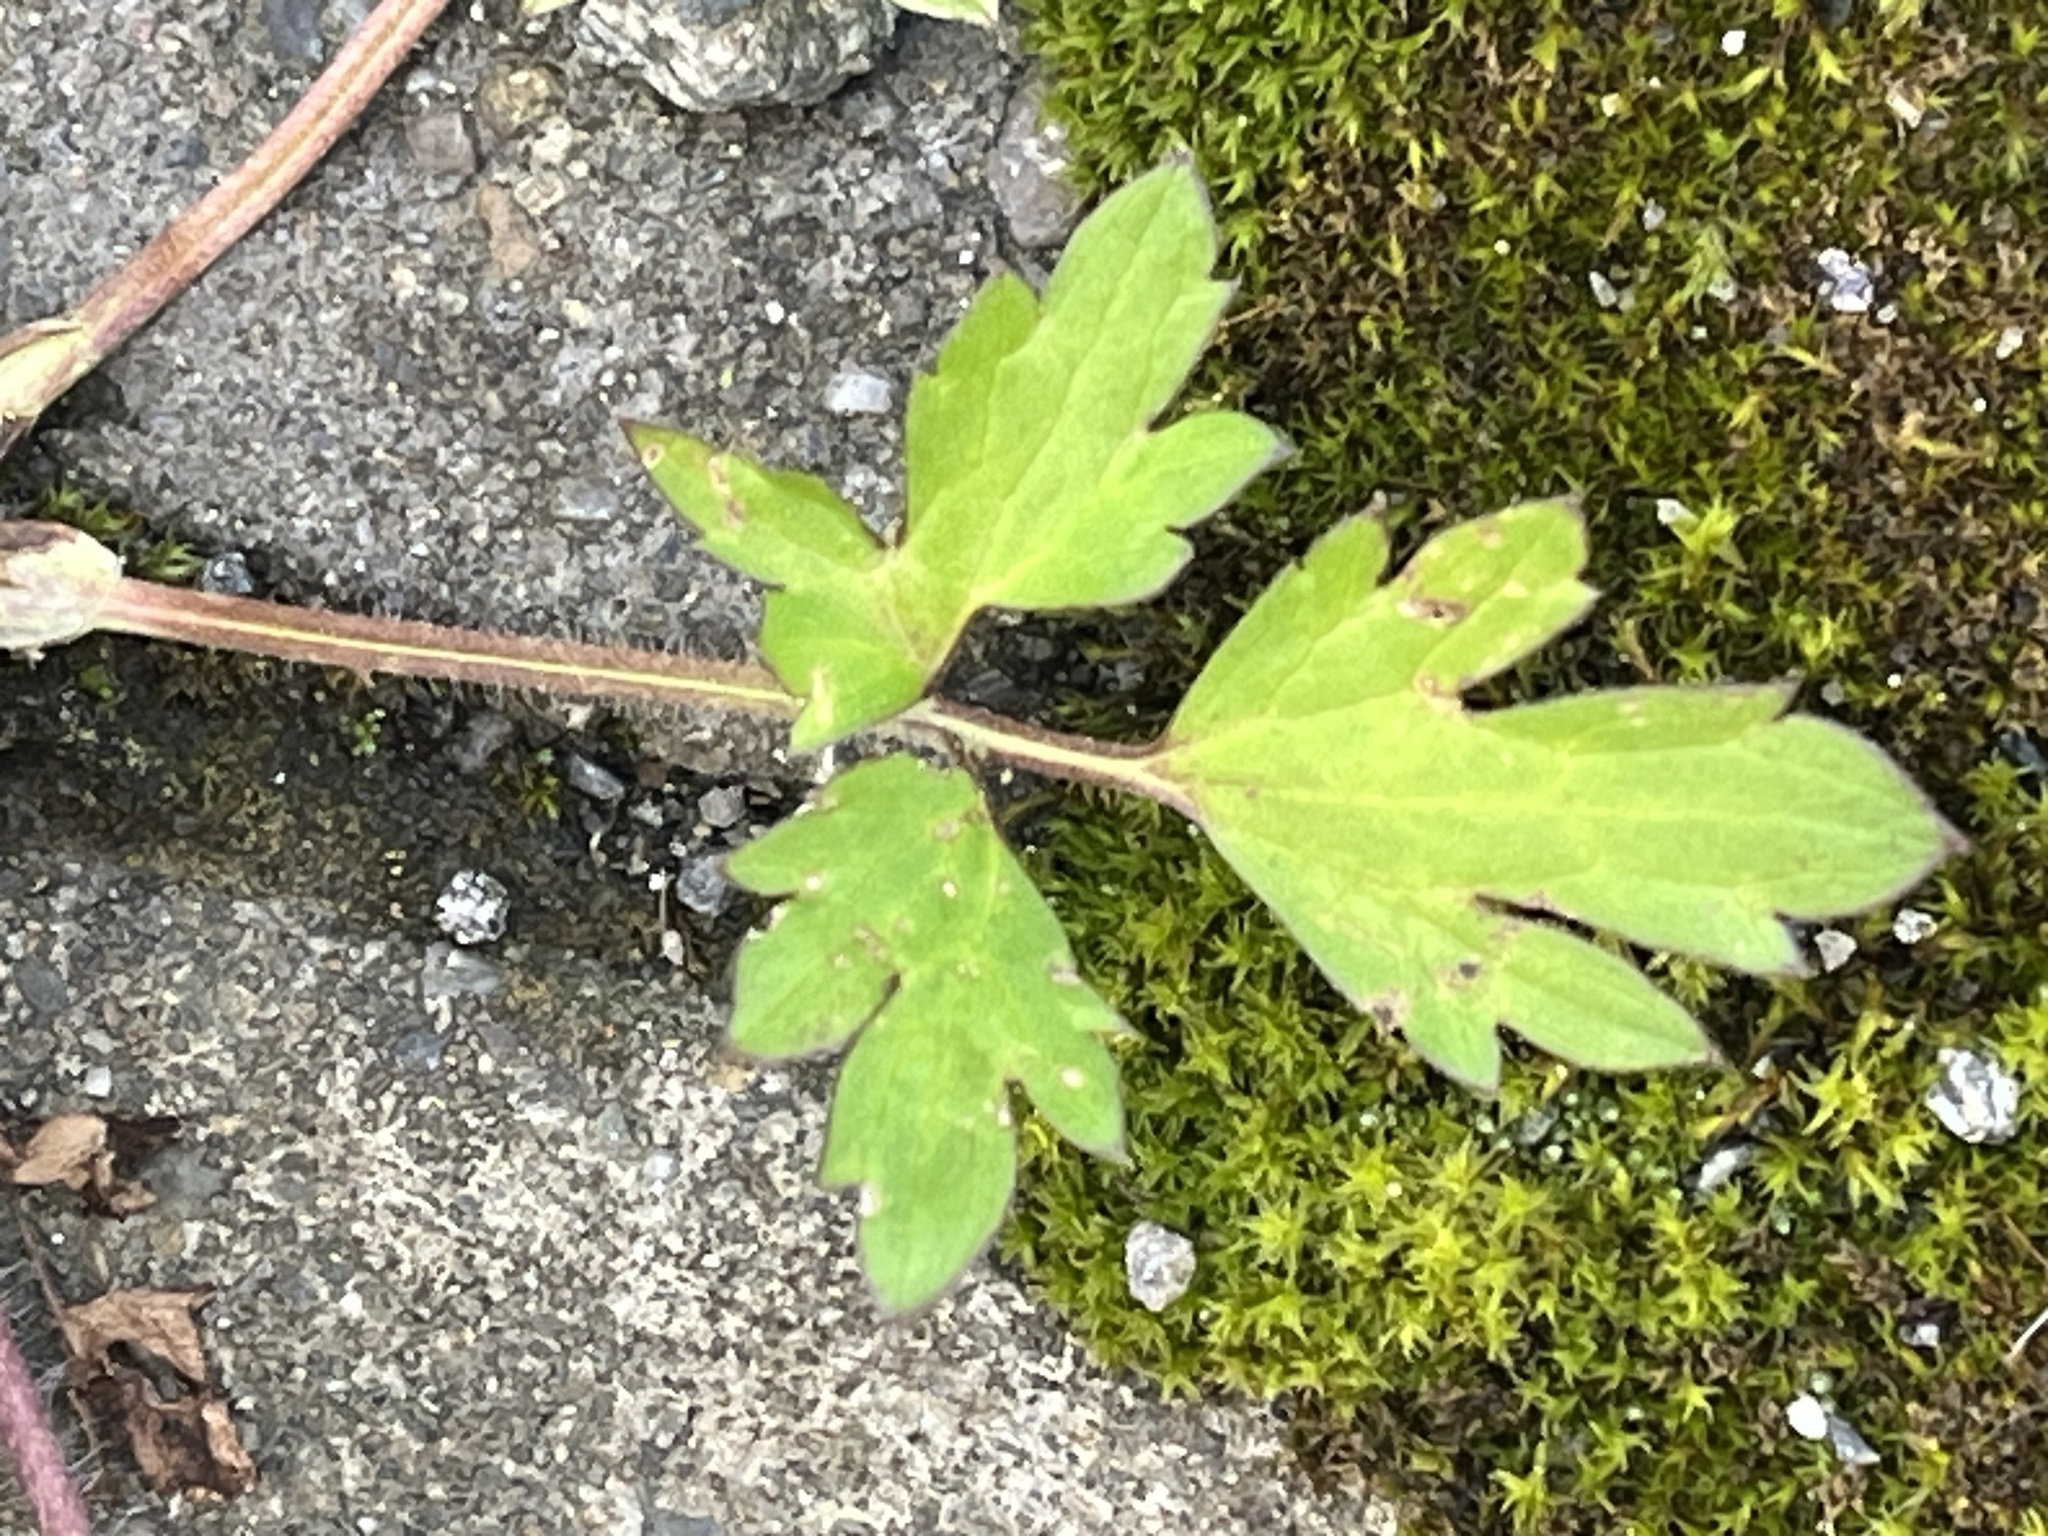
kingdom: Plantae
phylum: Tracheophyta
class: Magnoliopsida
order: Ranunculales
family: Ranunculaceae
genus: Ranunculus
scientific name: Ranunculus repens
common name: Creeping buttercup
